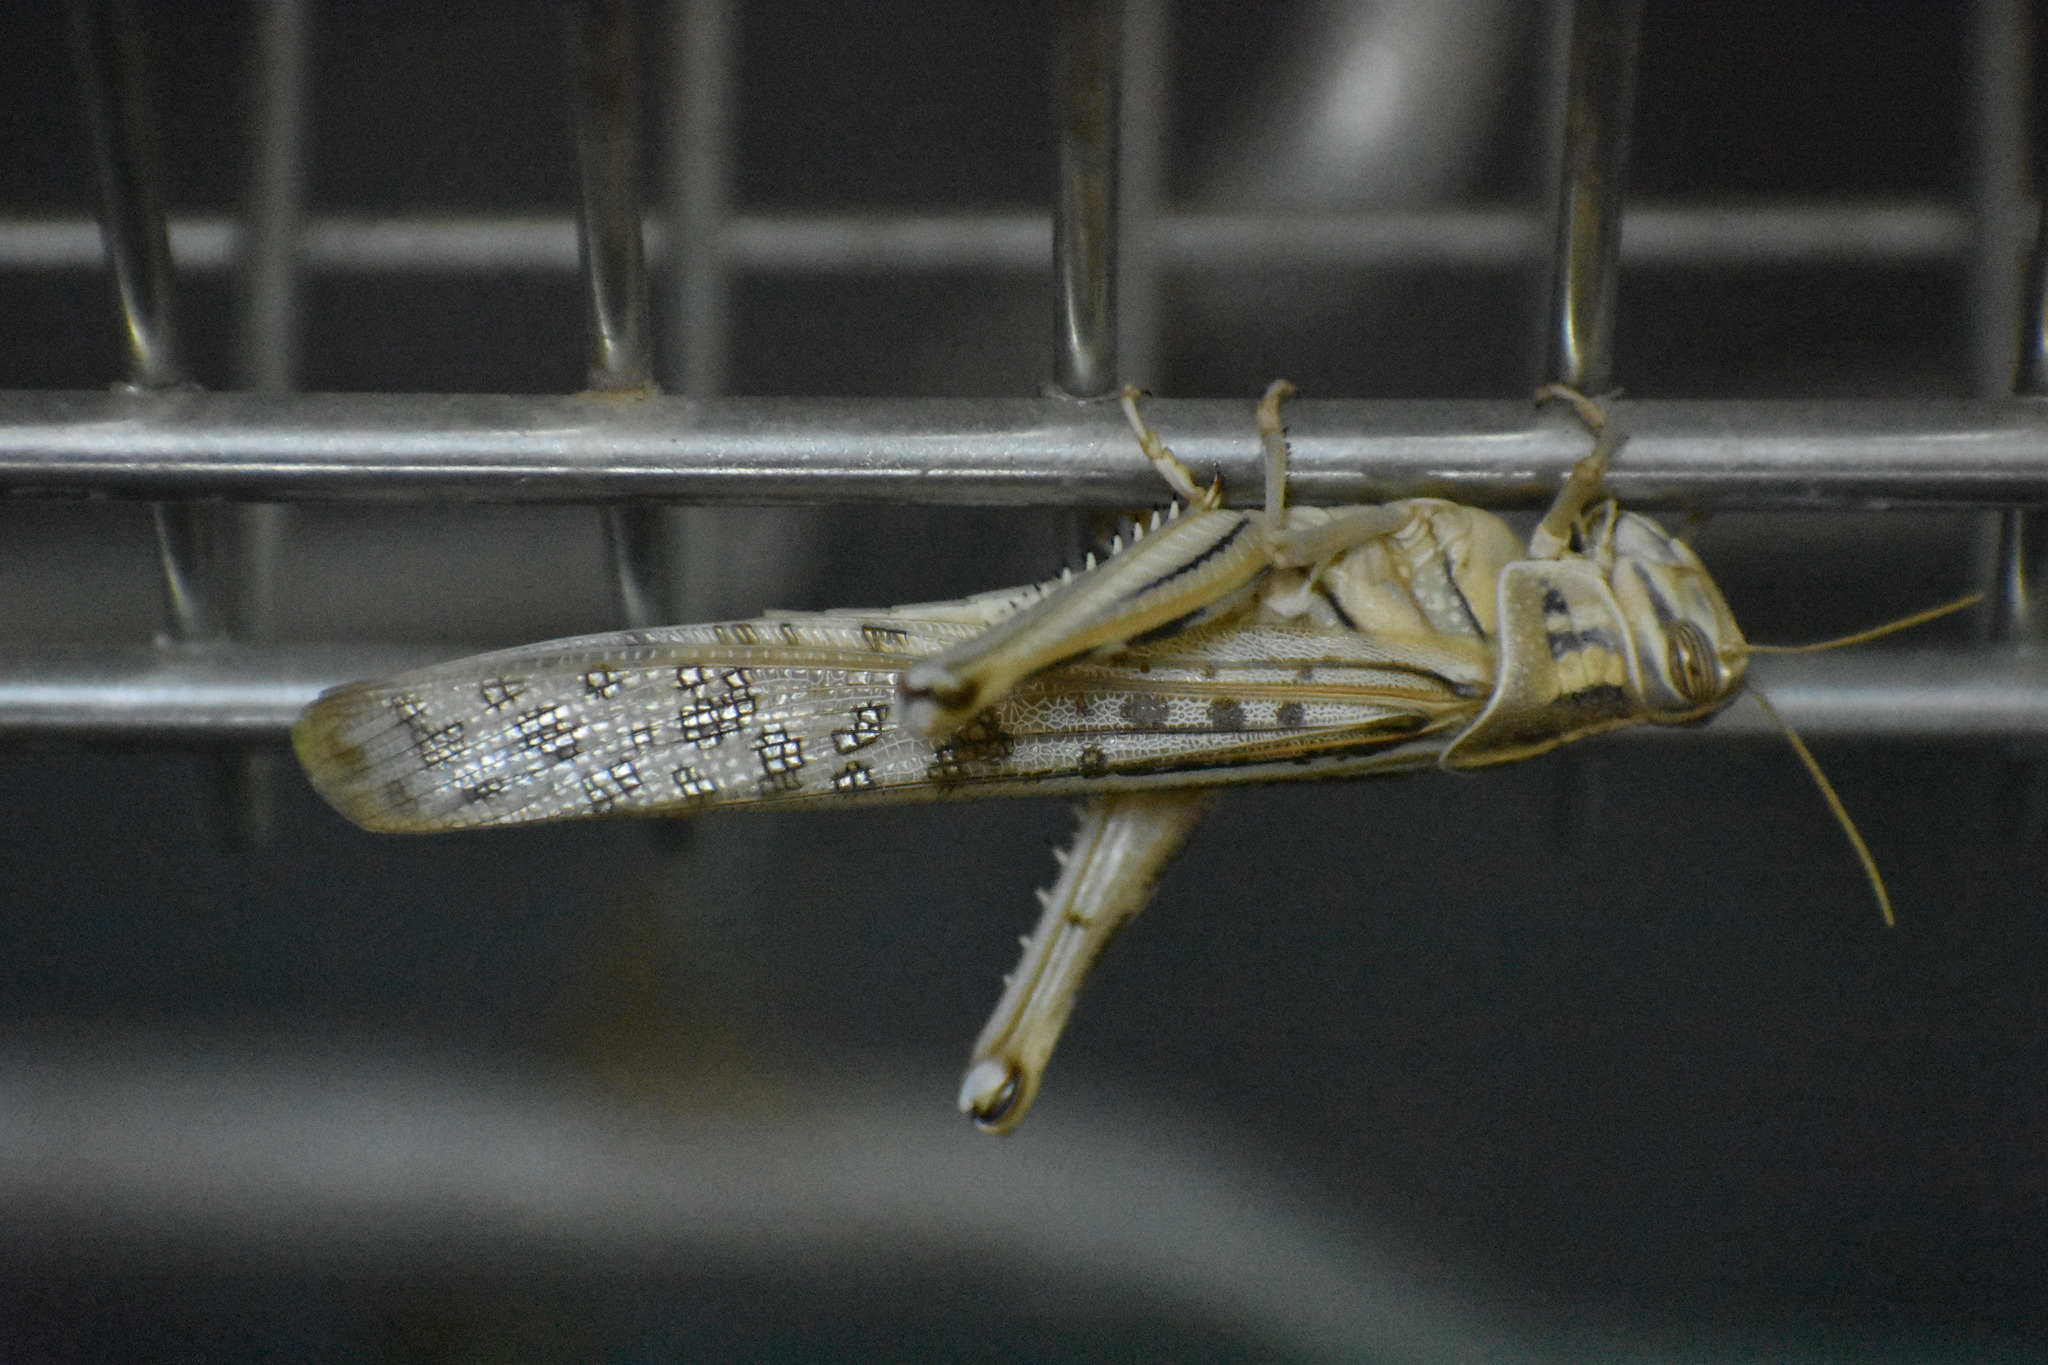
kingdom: Animalia
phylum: Arthropoda
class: Insecta
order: Orthoptera
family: Acrididae
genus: Schistocerca
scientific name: Schistocerca gregaria
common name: Desert locust
